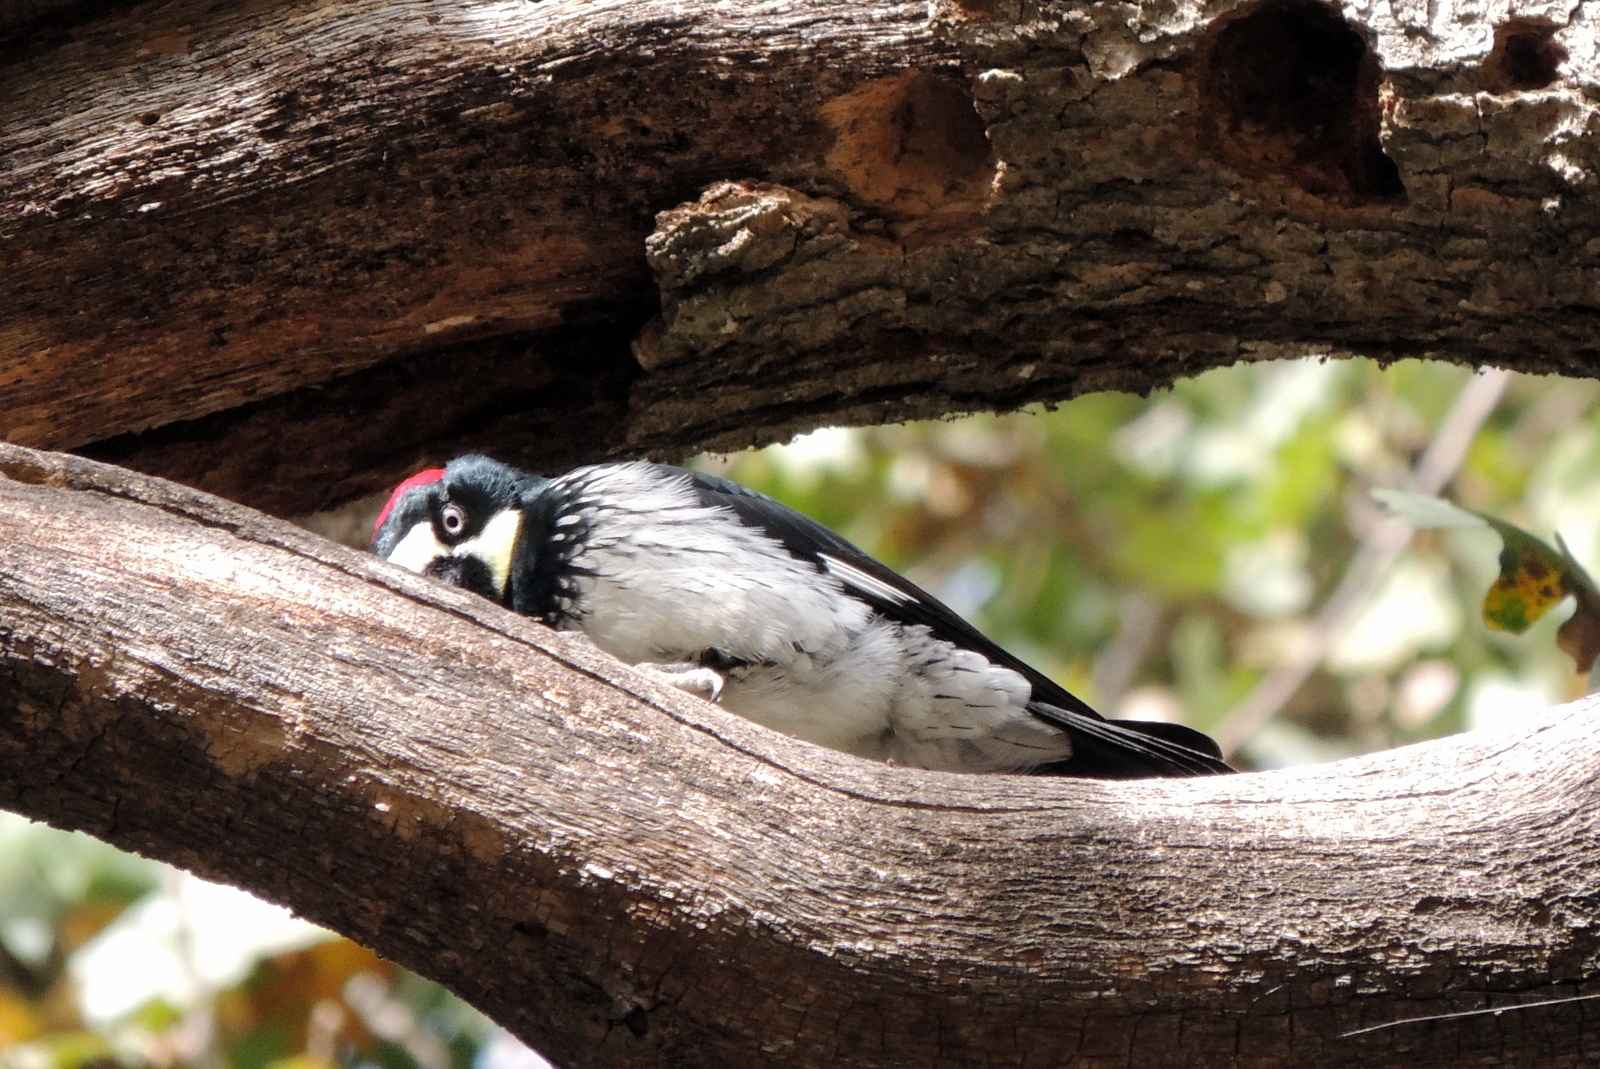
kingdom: Animalia
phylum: Chordata
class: Aves
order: Piciformes
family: Picidae
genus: Melanerpes
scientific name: Melanerpes formicivorus
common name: Acorn woodpecker
